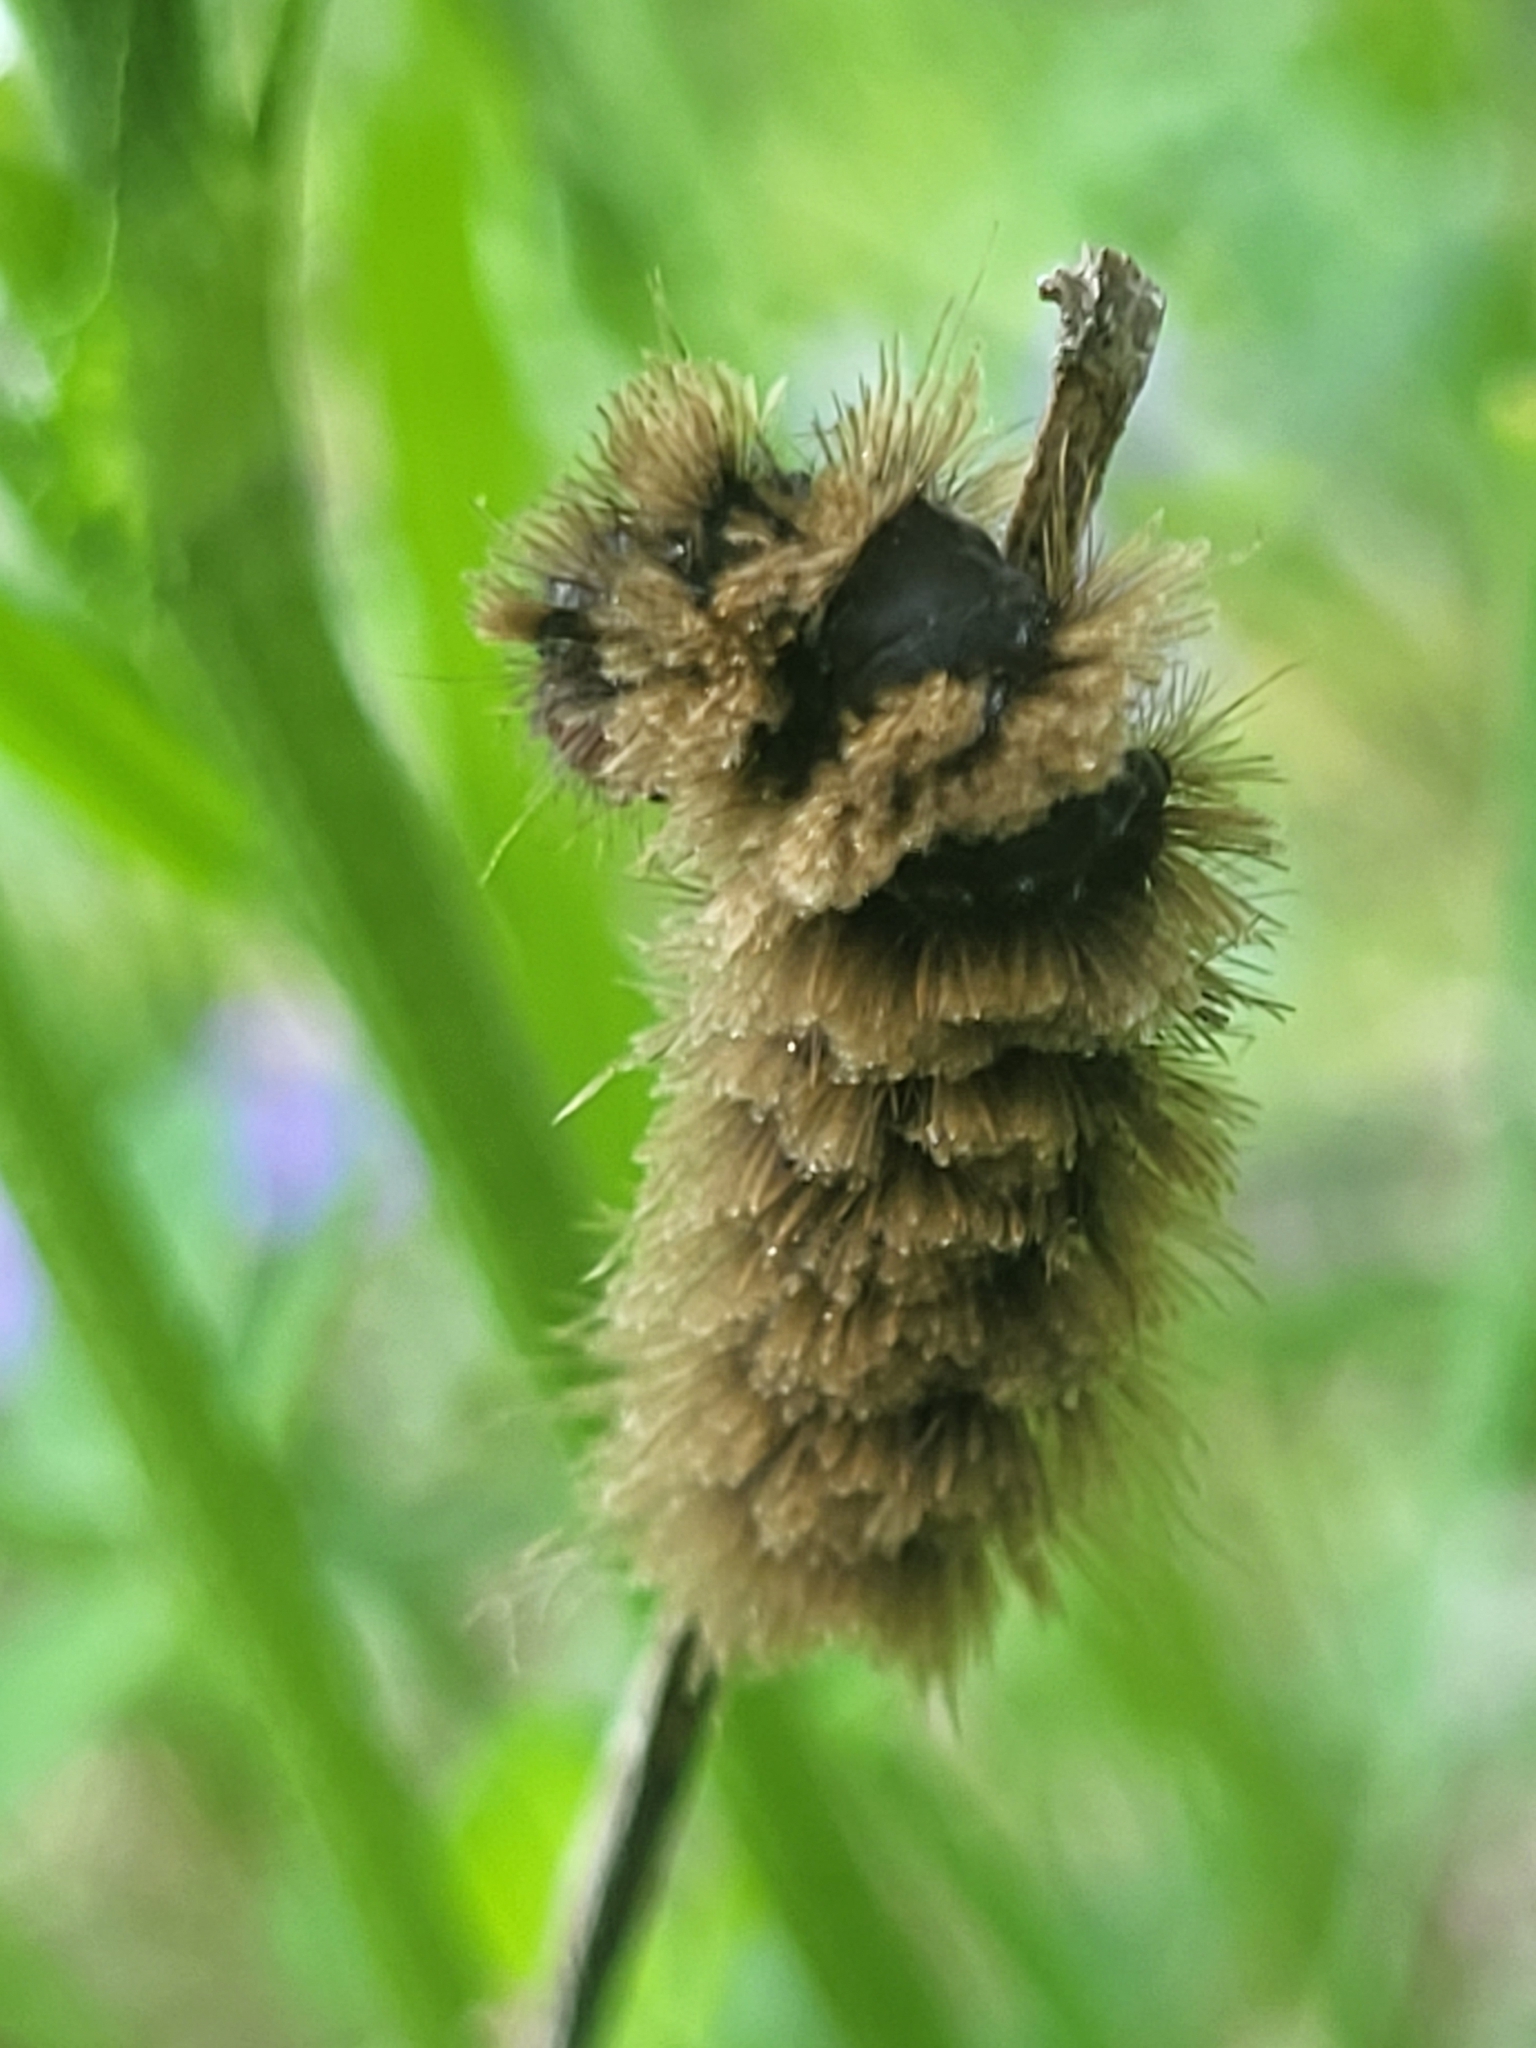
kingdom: Animalia
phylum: Arthropoda
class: Insecta
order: Lepidoptera
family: Erebidae
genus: Amata
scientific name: Amata phegea
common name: Nine-spotted
